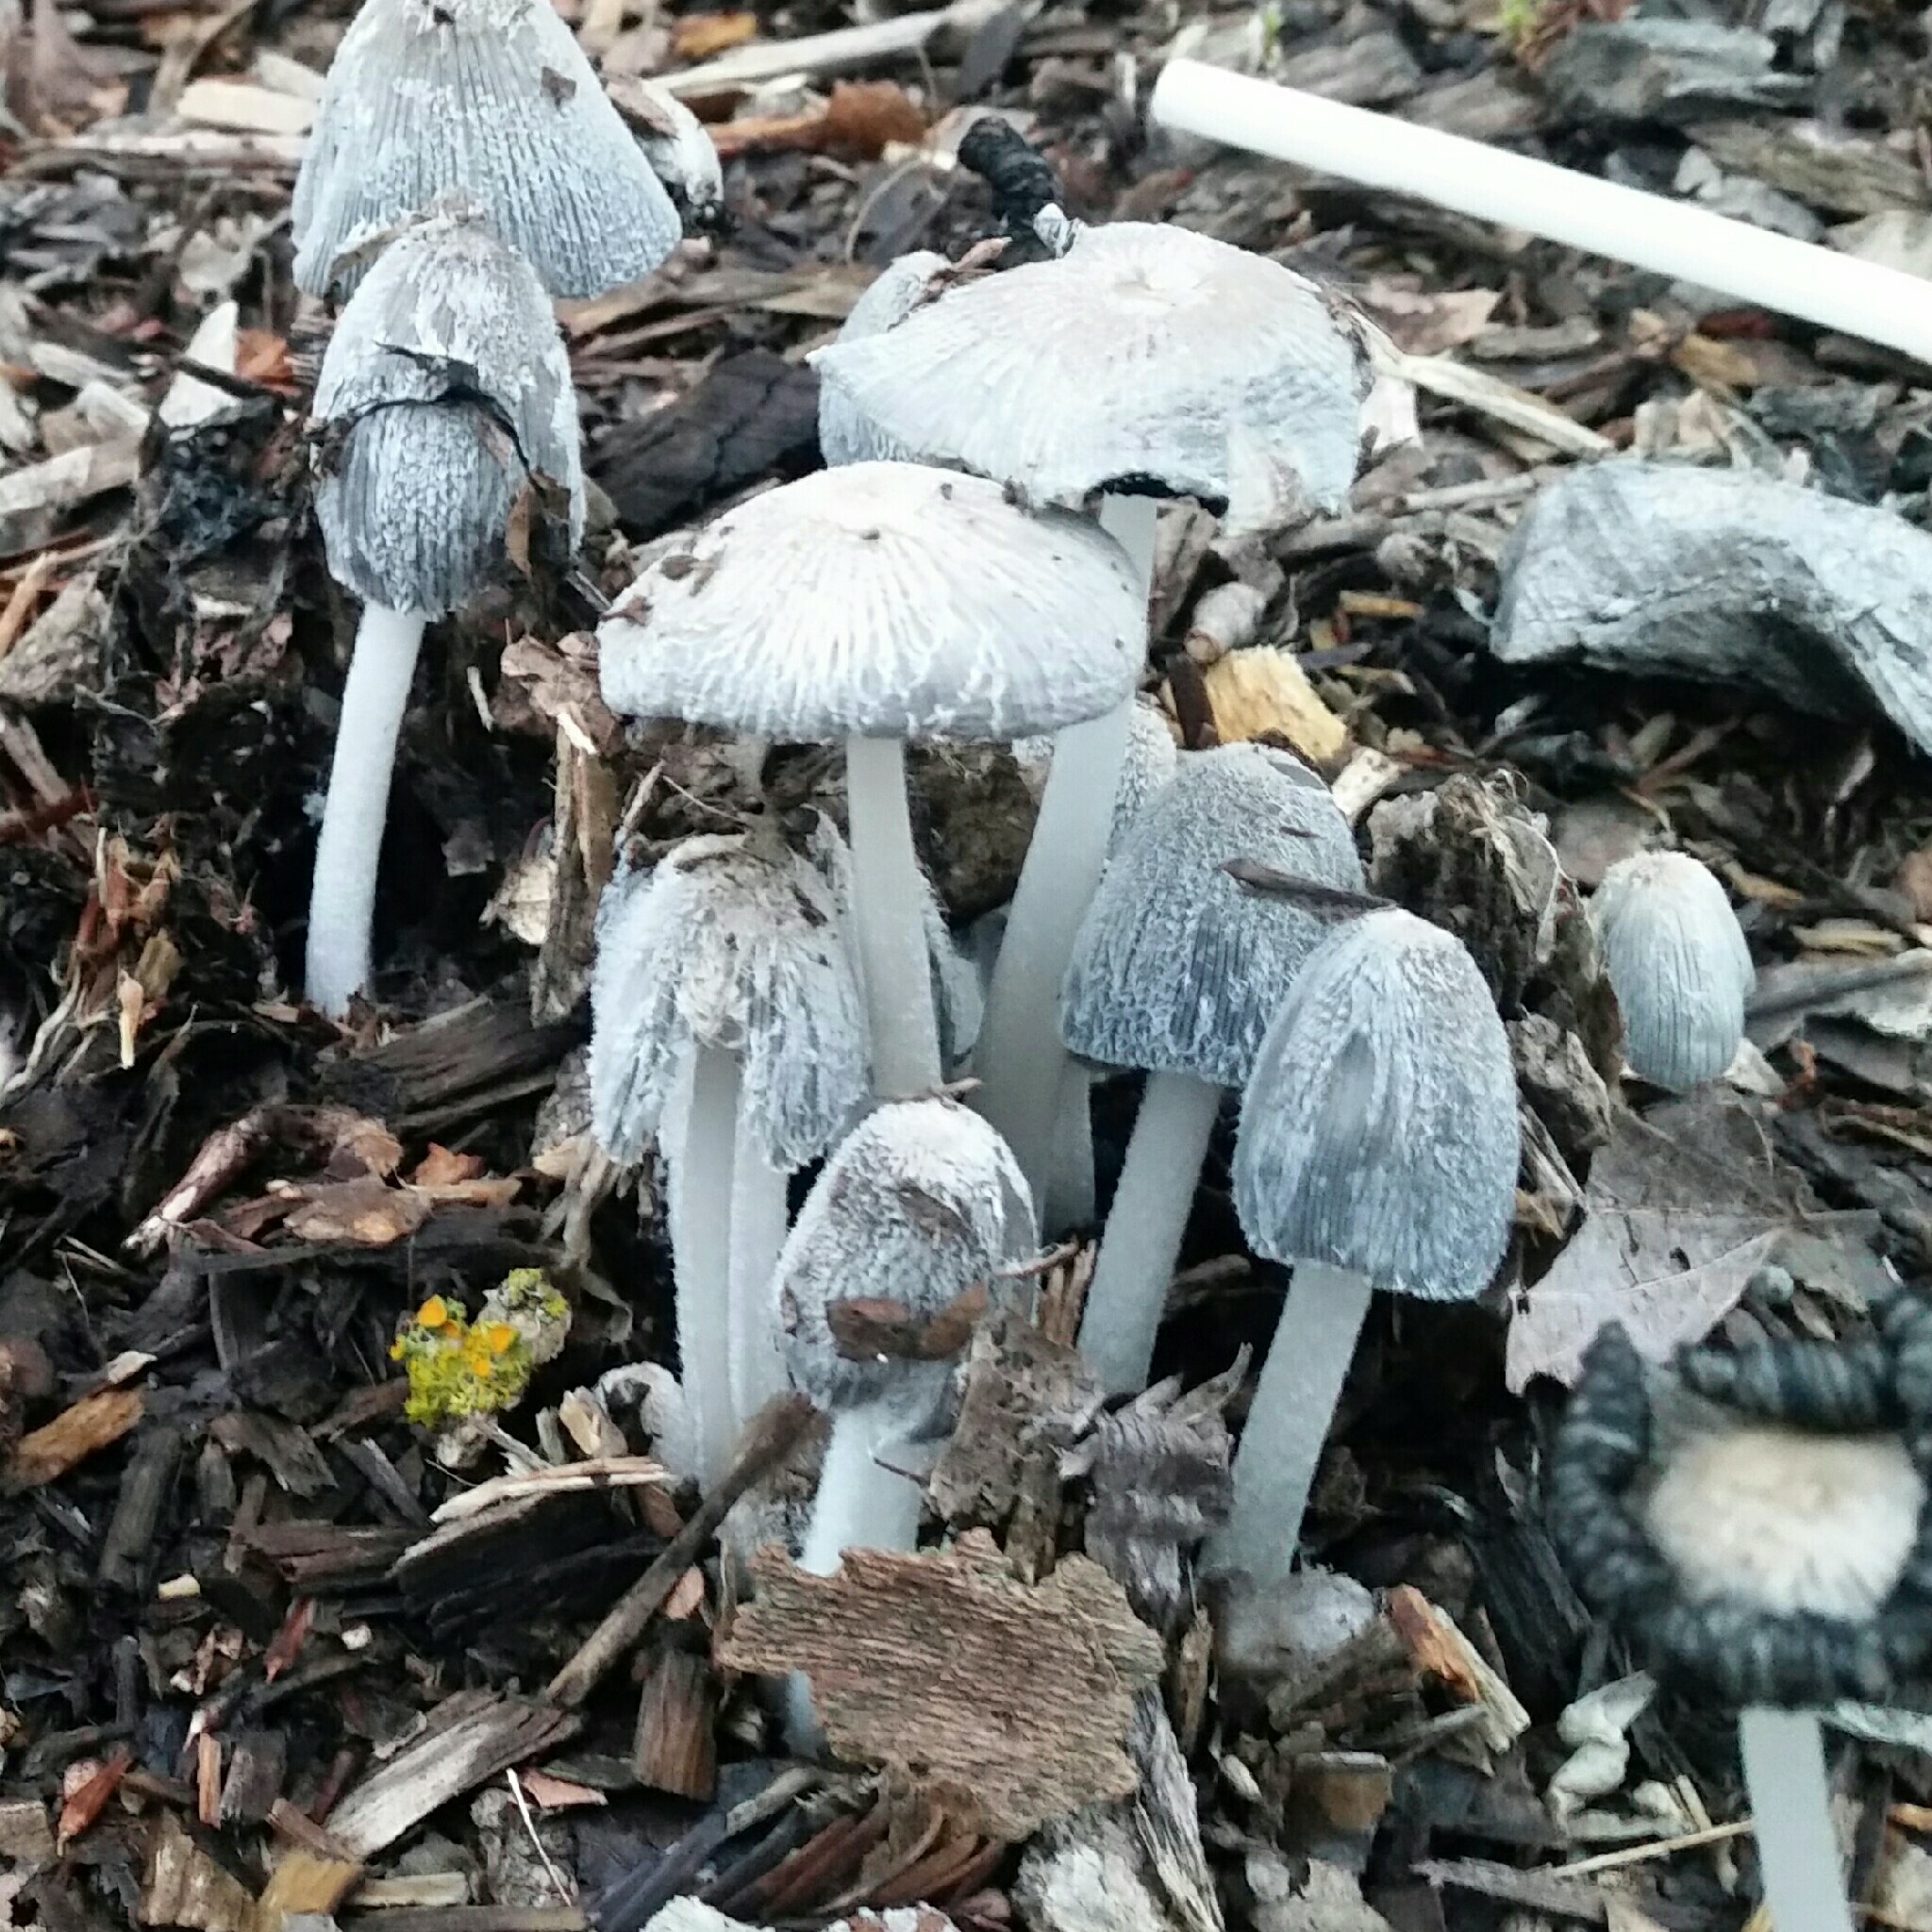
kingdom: Fungi
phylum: Basidiomycota
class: Agaricomycetes
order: Agaricales
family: Psathyrellaceae
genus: Coprinopsis
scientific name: Coprinopsis lagopus
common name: Hare'sfoot inkcap
